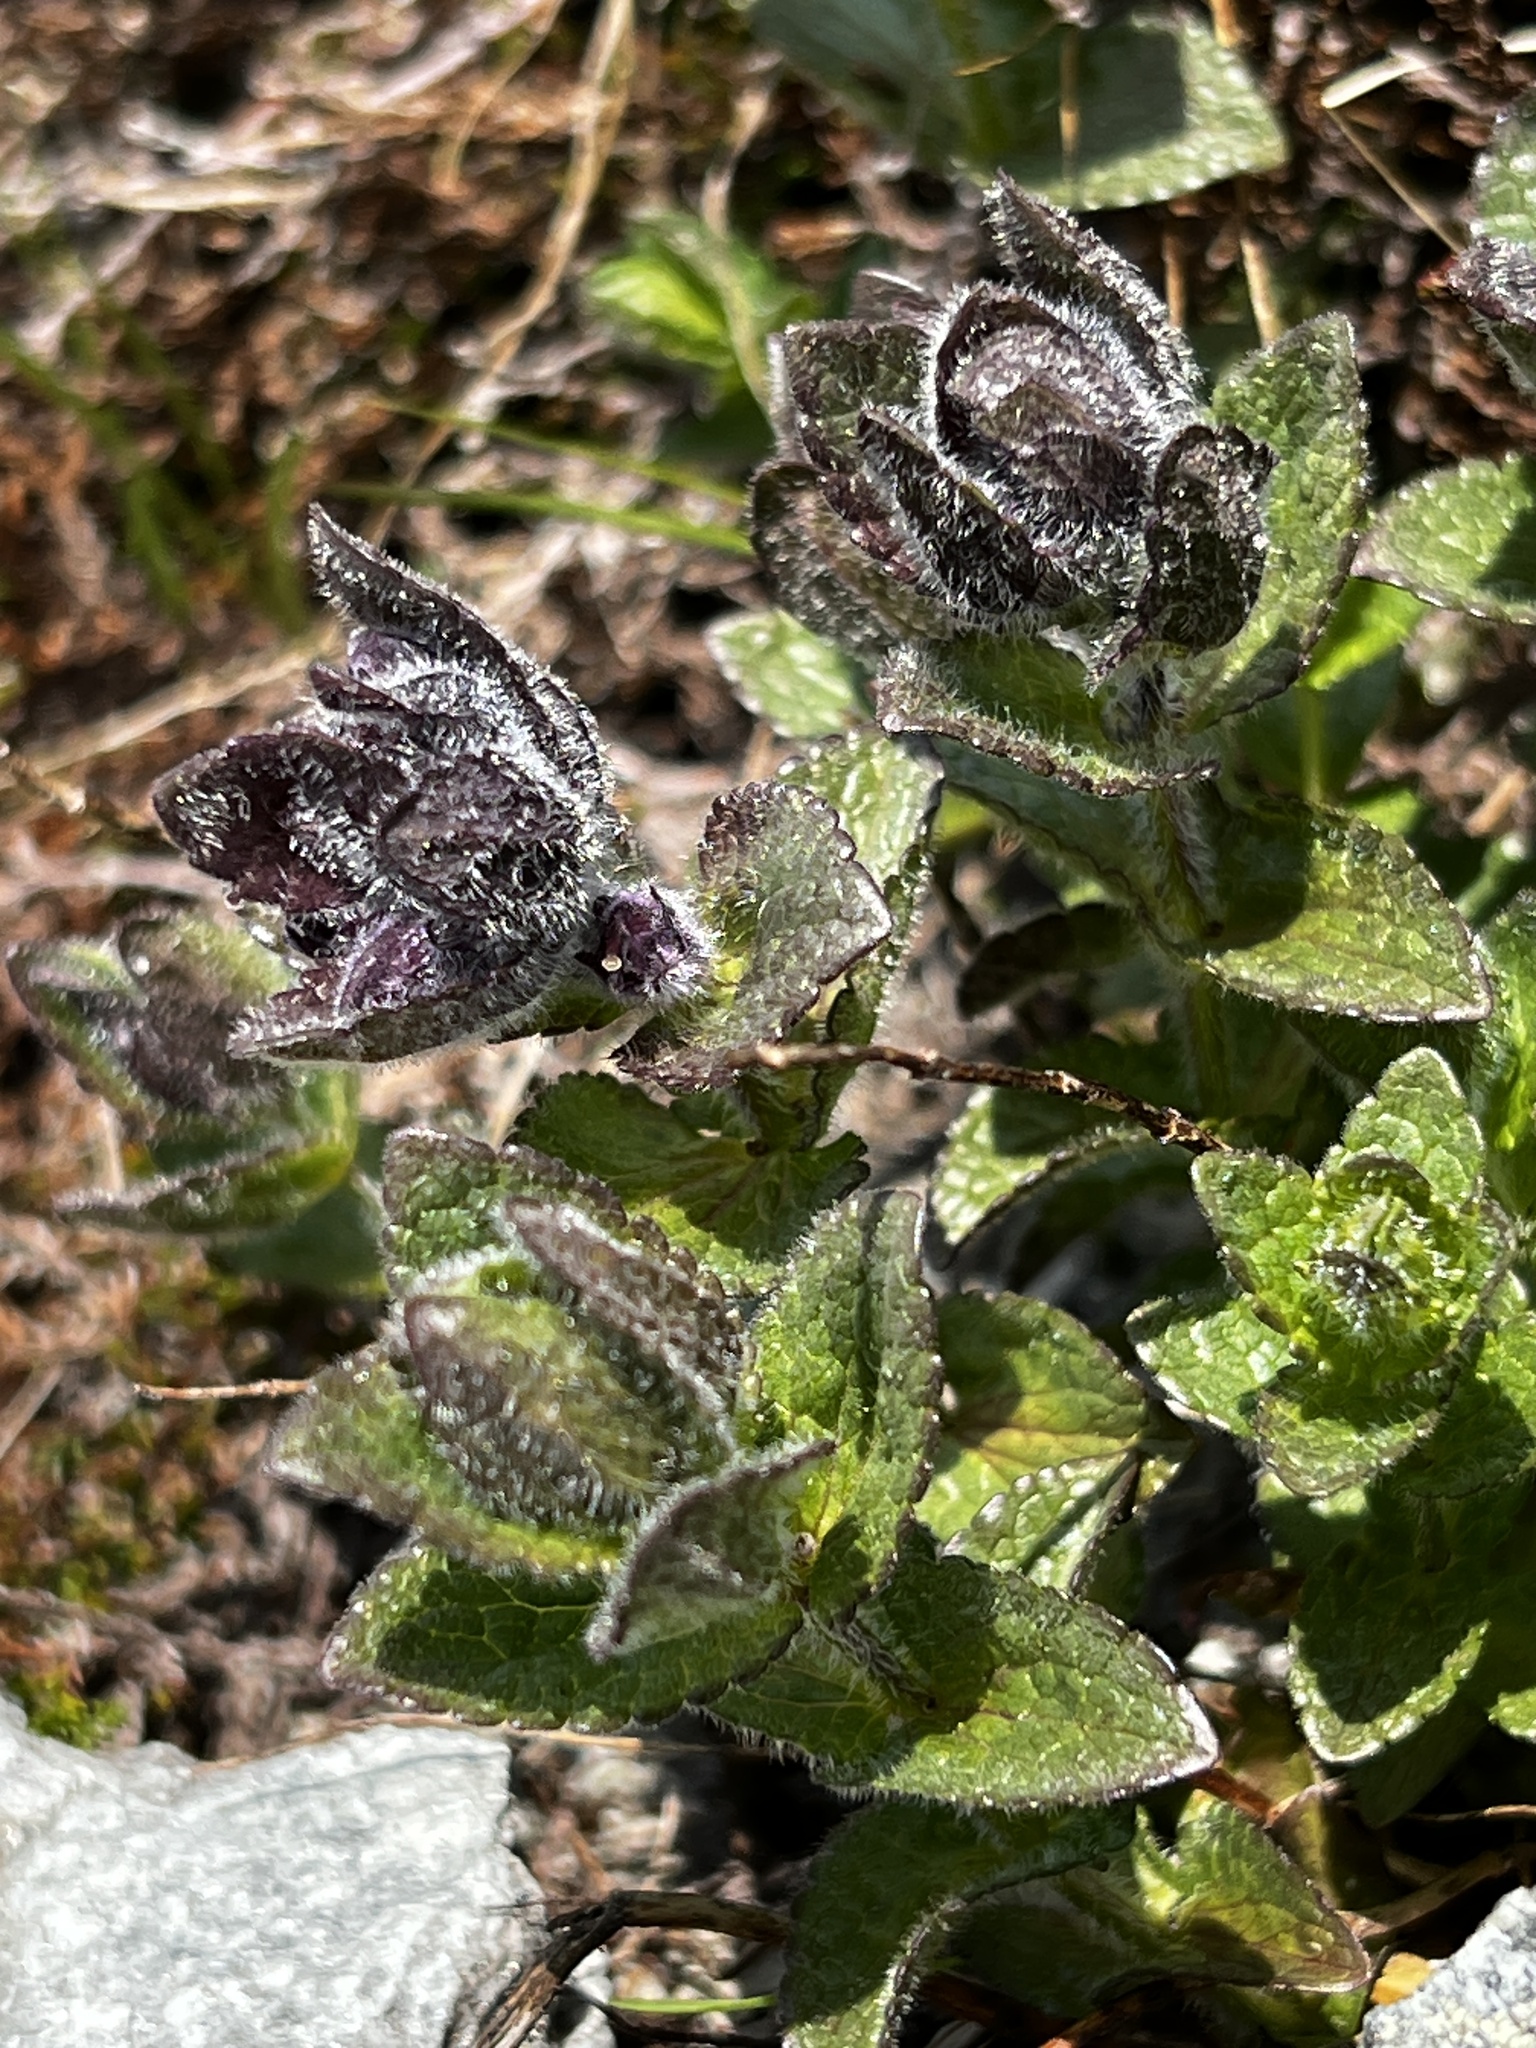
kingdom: Plantae
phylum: Tracheophyta
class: Magnoliopsida
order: Lamiales
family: Orobanchaceae
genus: Bartsia
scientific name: Bartsia alpina
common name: Alpine bartsia
